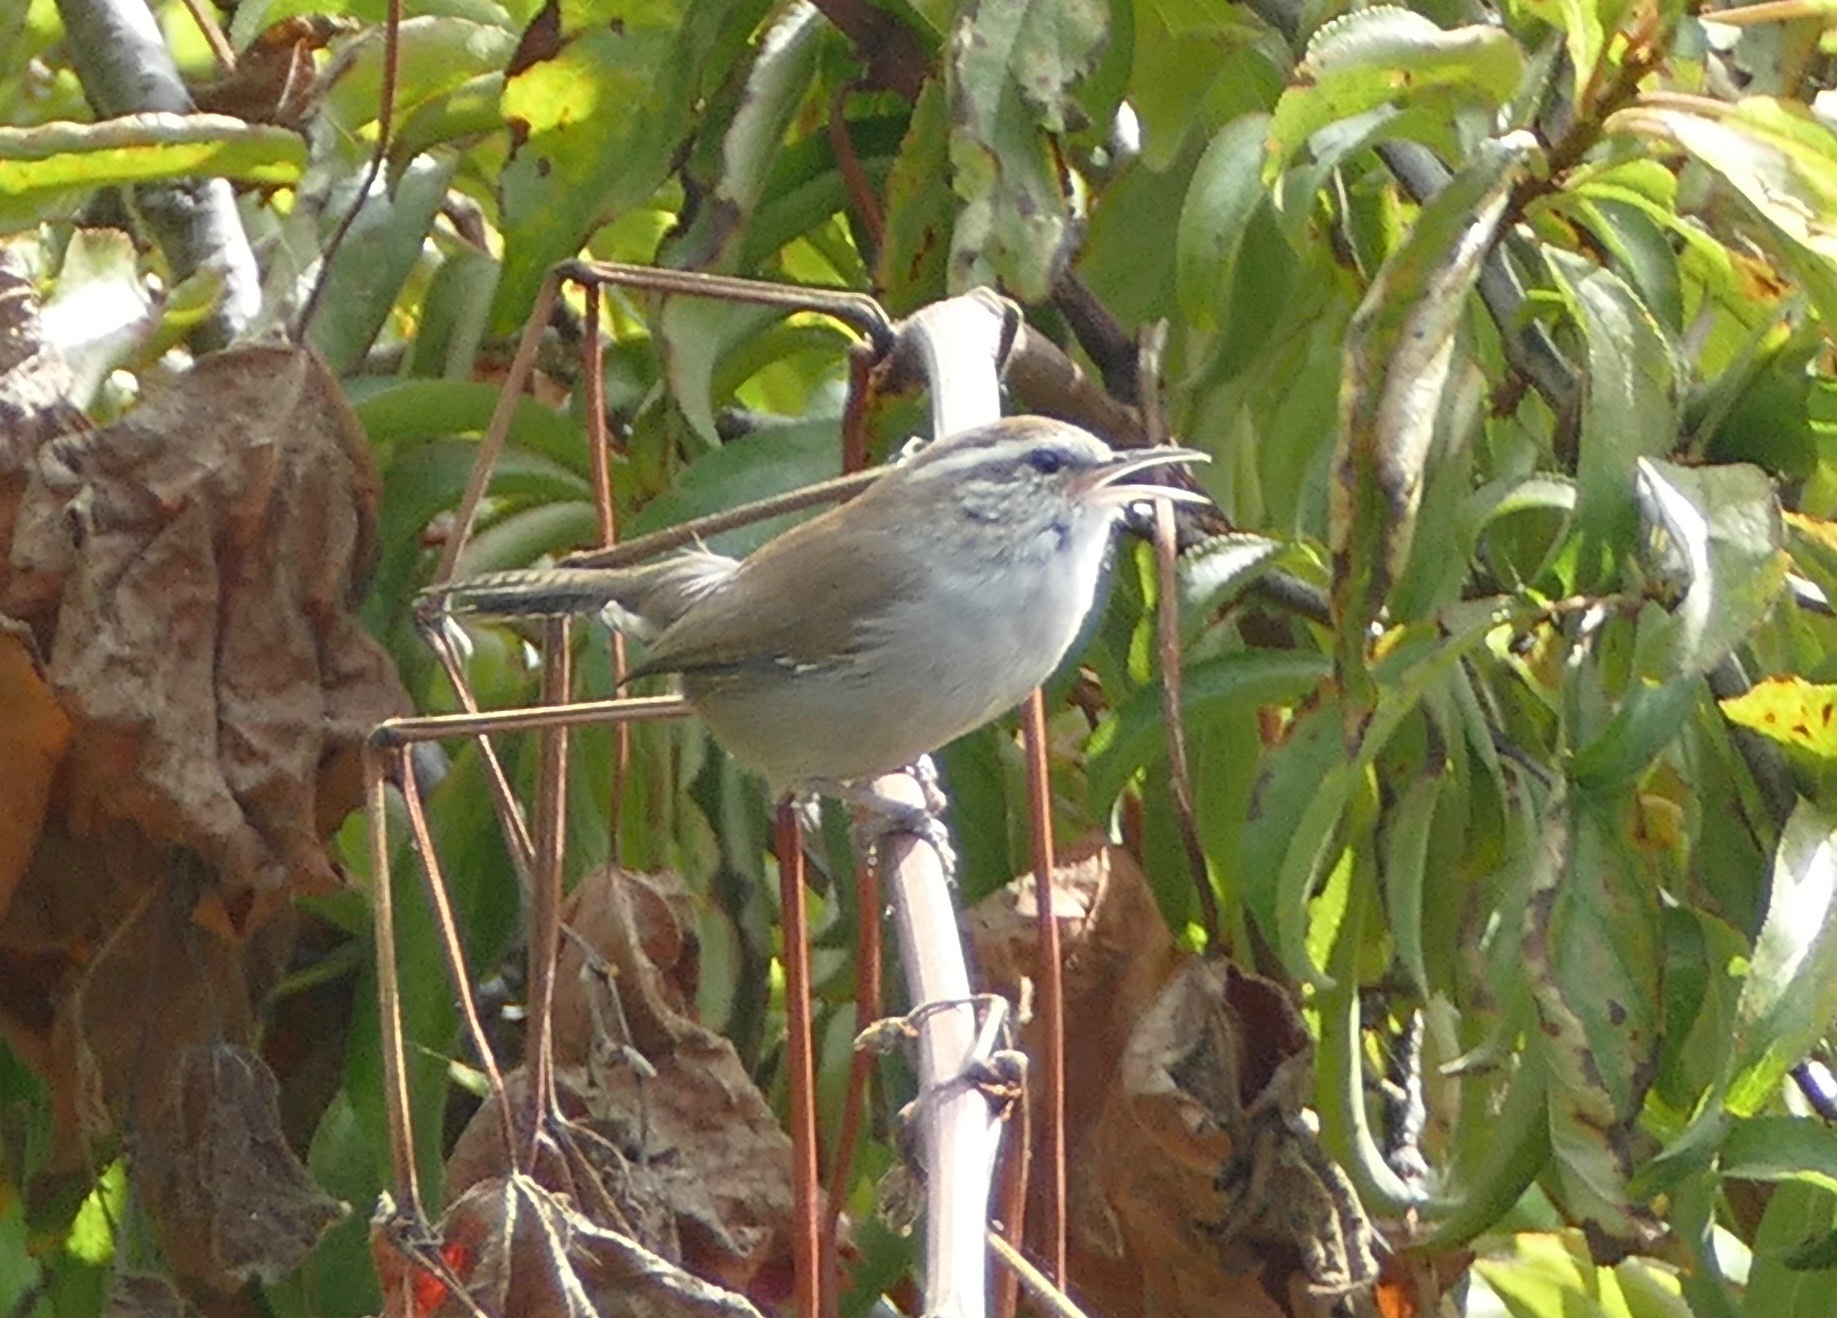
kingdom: Animalia
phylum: Chordata
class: Aves
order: Passeriformes
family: Troglodytidae
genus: Thryomanes
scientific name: Thryomanes bewickii
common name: Bewick's wren
